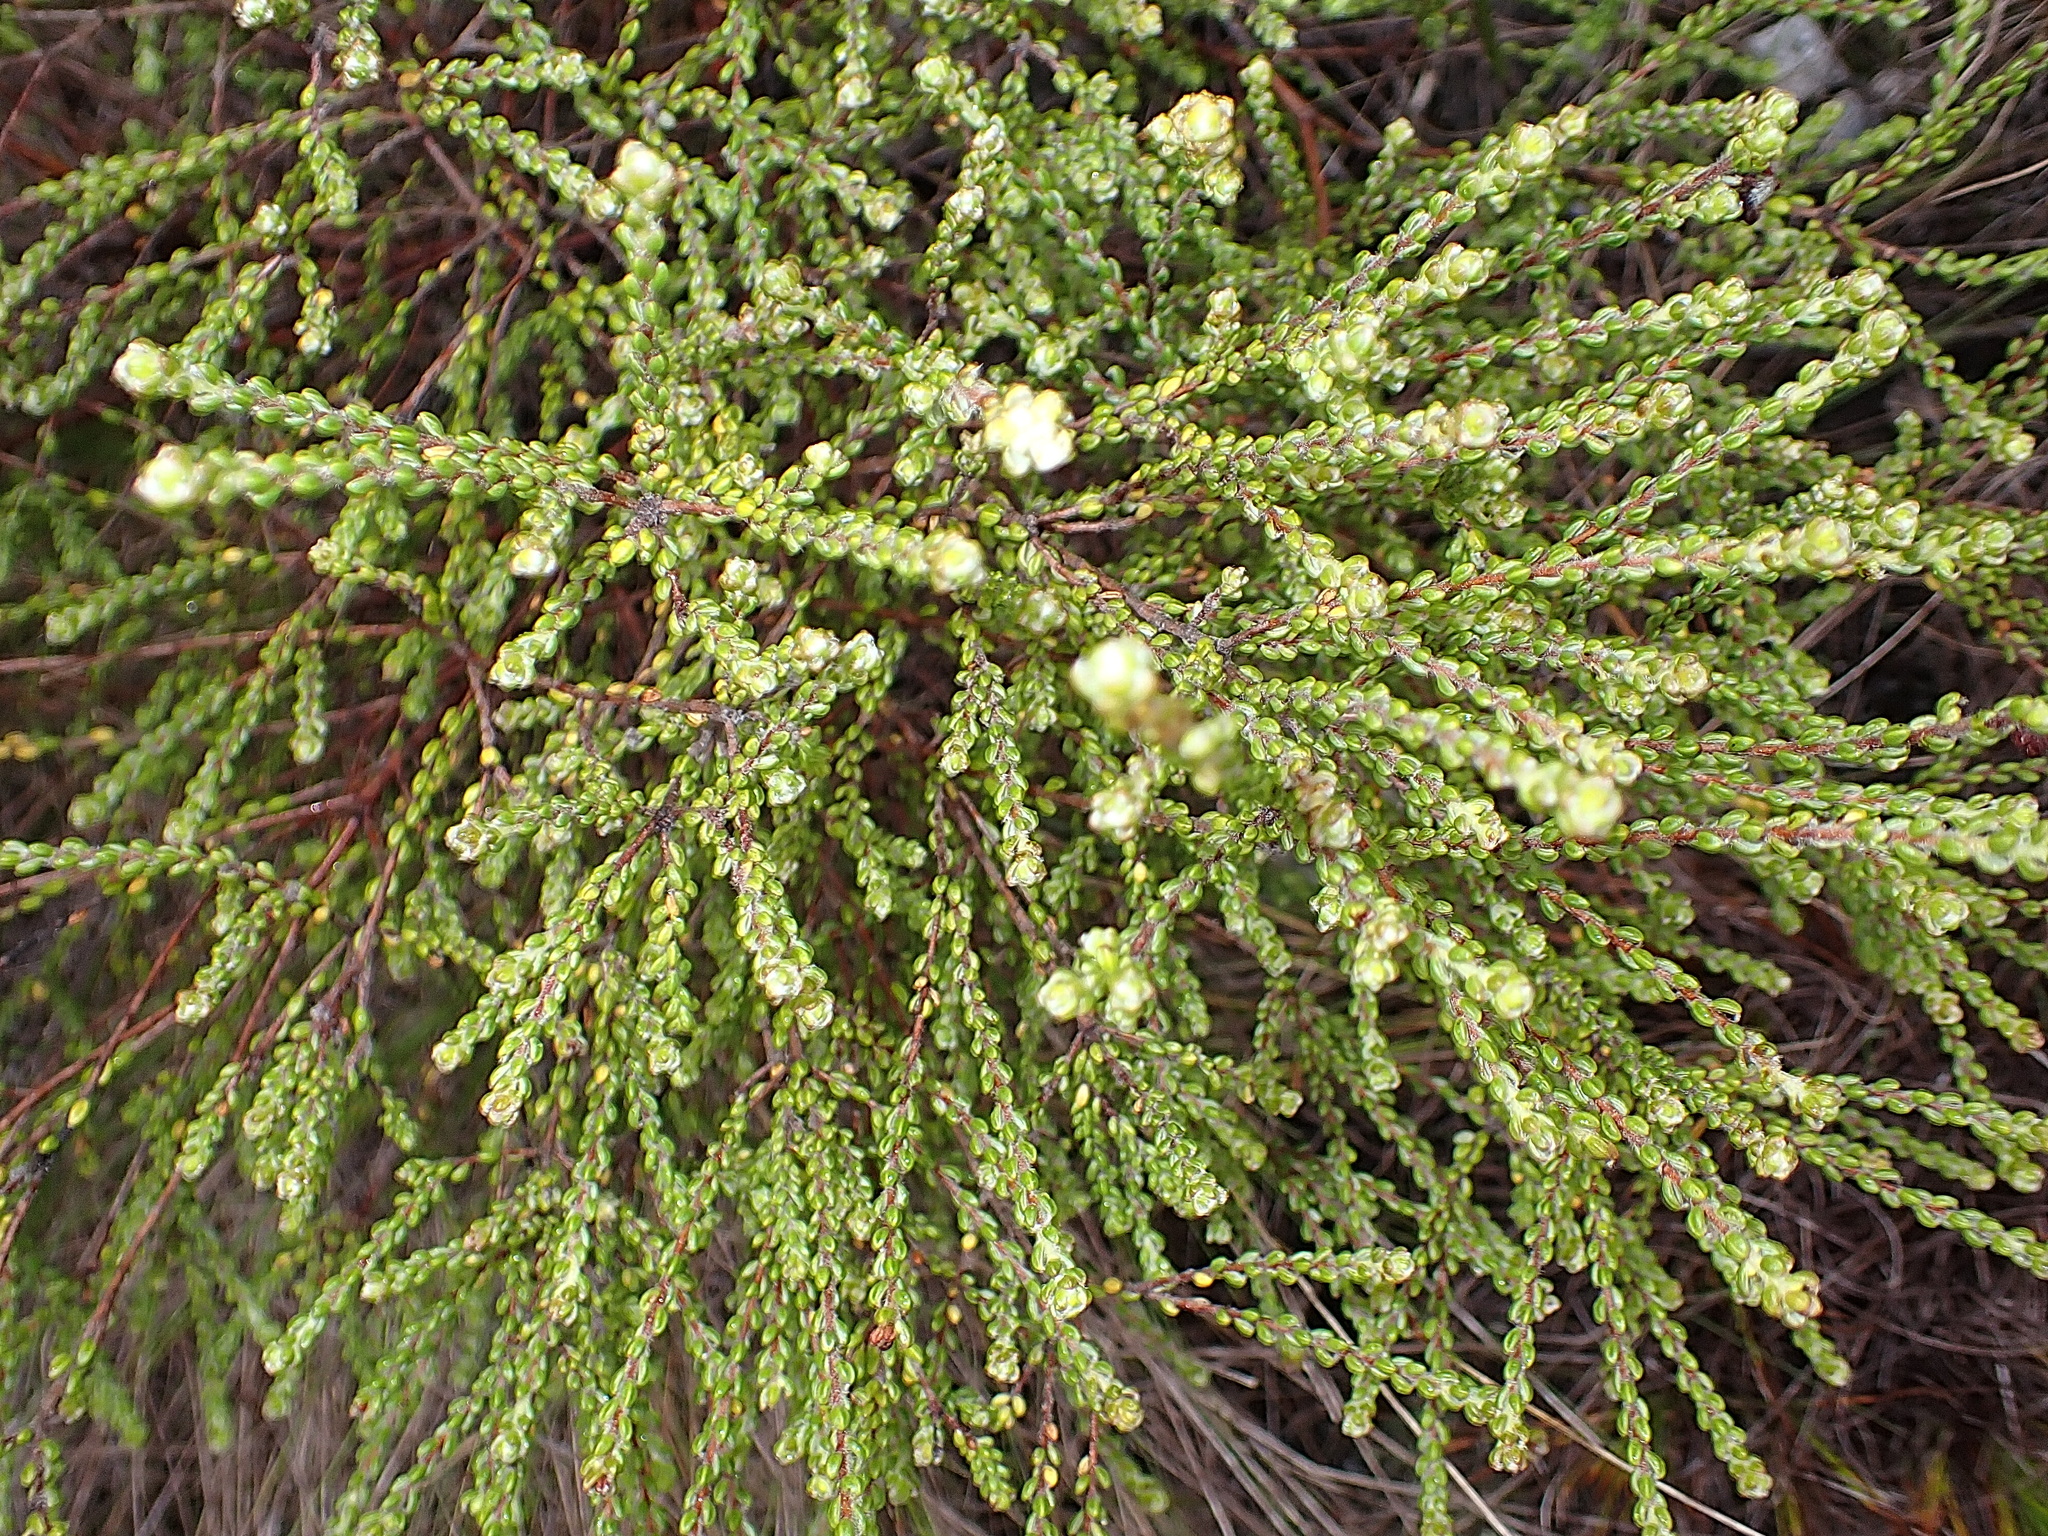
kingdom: Plantae
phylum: Tracheophyta
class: Magnoliopsida
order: Malvales
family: Thymelaeaceae
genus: Lachnaea
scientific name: Lachnaea ericoides
